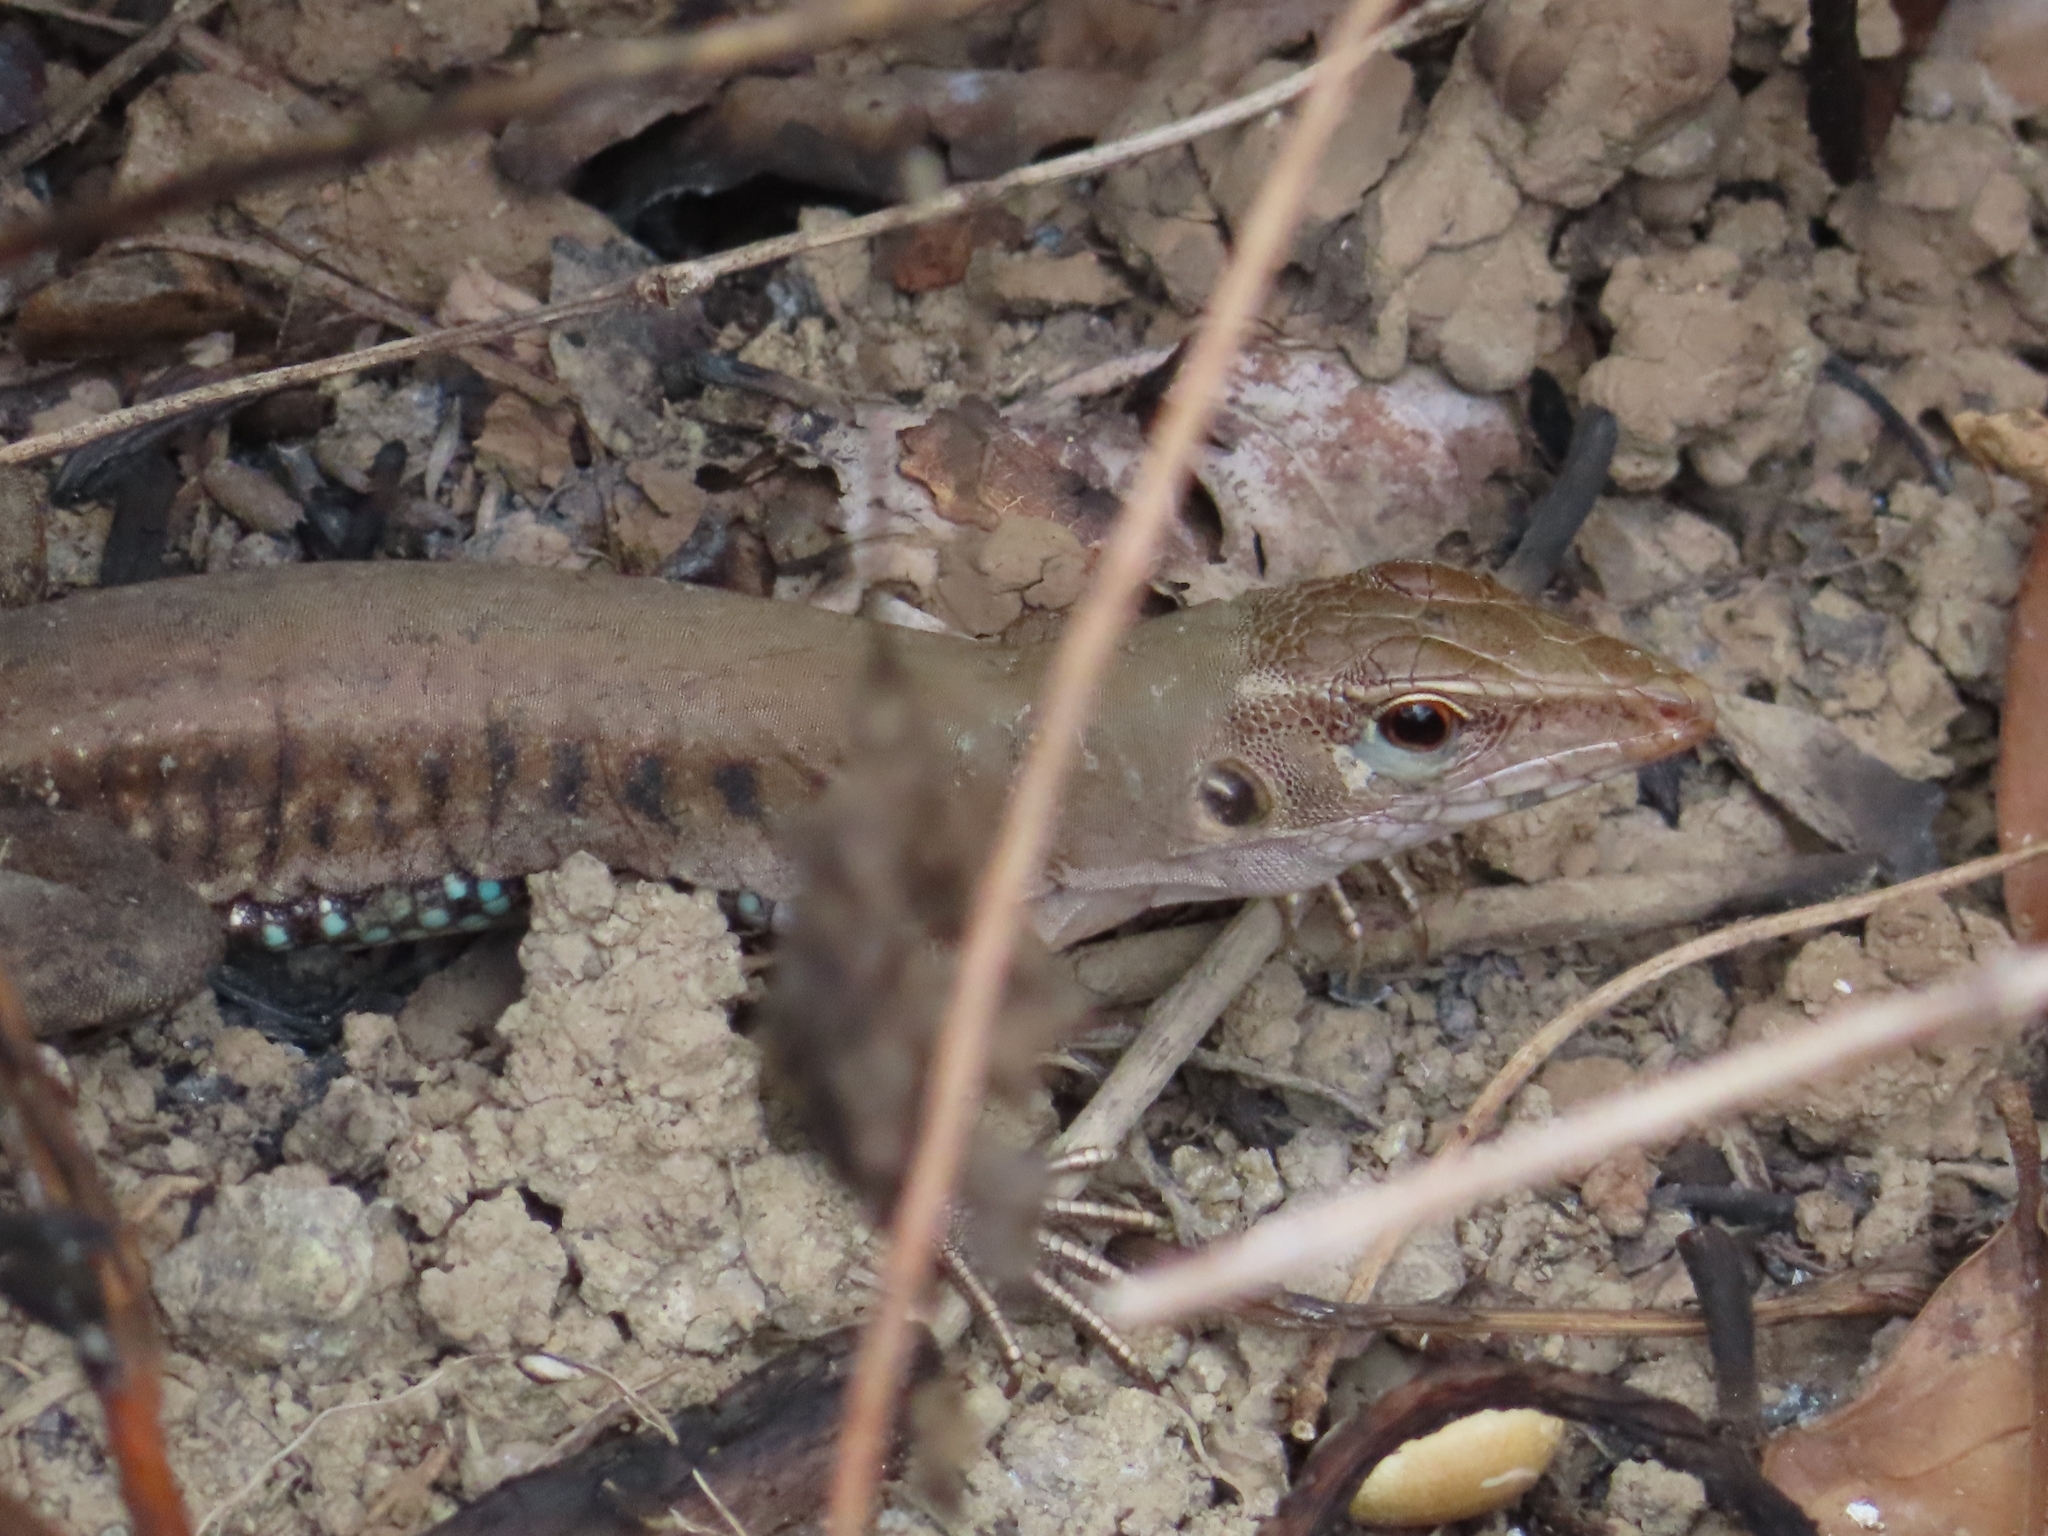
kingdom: Animalia
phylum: Chordata
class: Squamata
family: Teiidae
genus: Pholidoscelis
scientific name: Pholidoscelis exsul
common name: Common puerto rican ameiva
